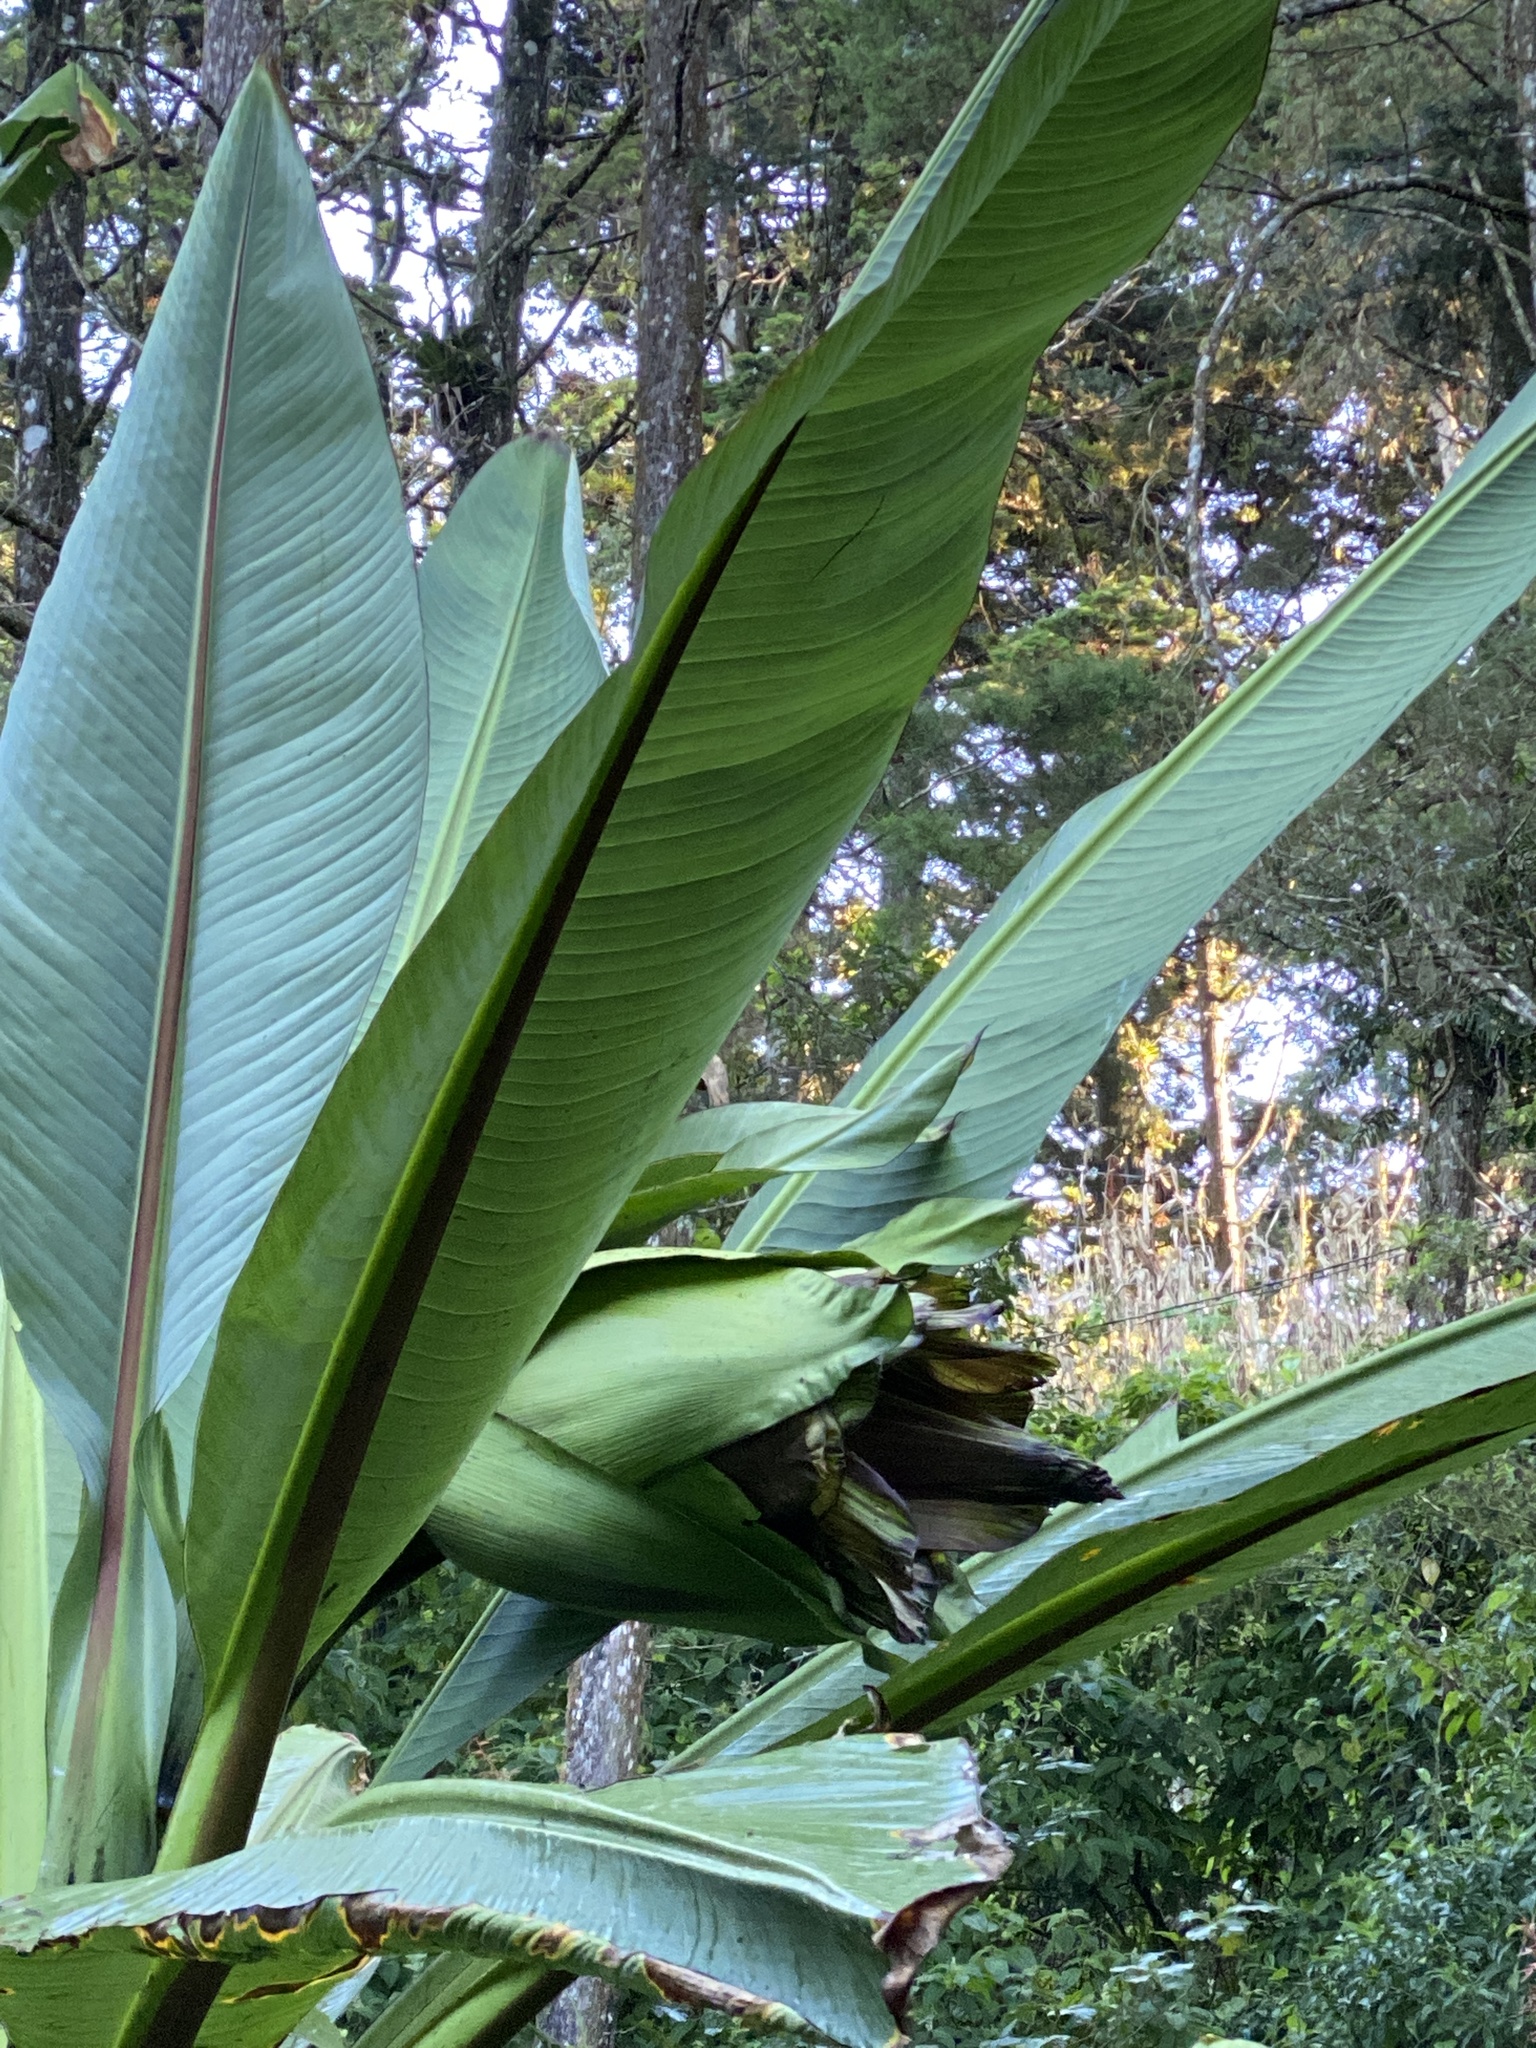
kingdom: Plantae
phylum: Tracheophyta
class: Liliopsida
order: Zingiberales
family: Musaceae
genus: Ensete
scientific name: Ensete ventricosum
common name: Abyssinian banana
